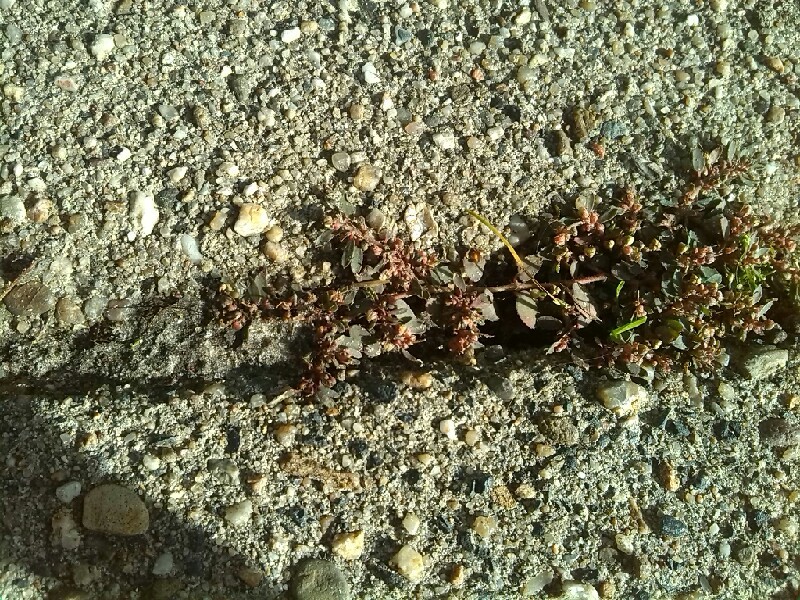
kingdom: Plantae
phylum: Tracheophyta
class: Magnoliopsida
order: Malpighiales
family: Euphorbiaceae
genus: Euphorbia
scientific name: Euphorbia maculata
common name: Spotted spurge
